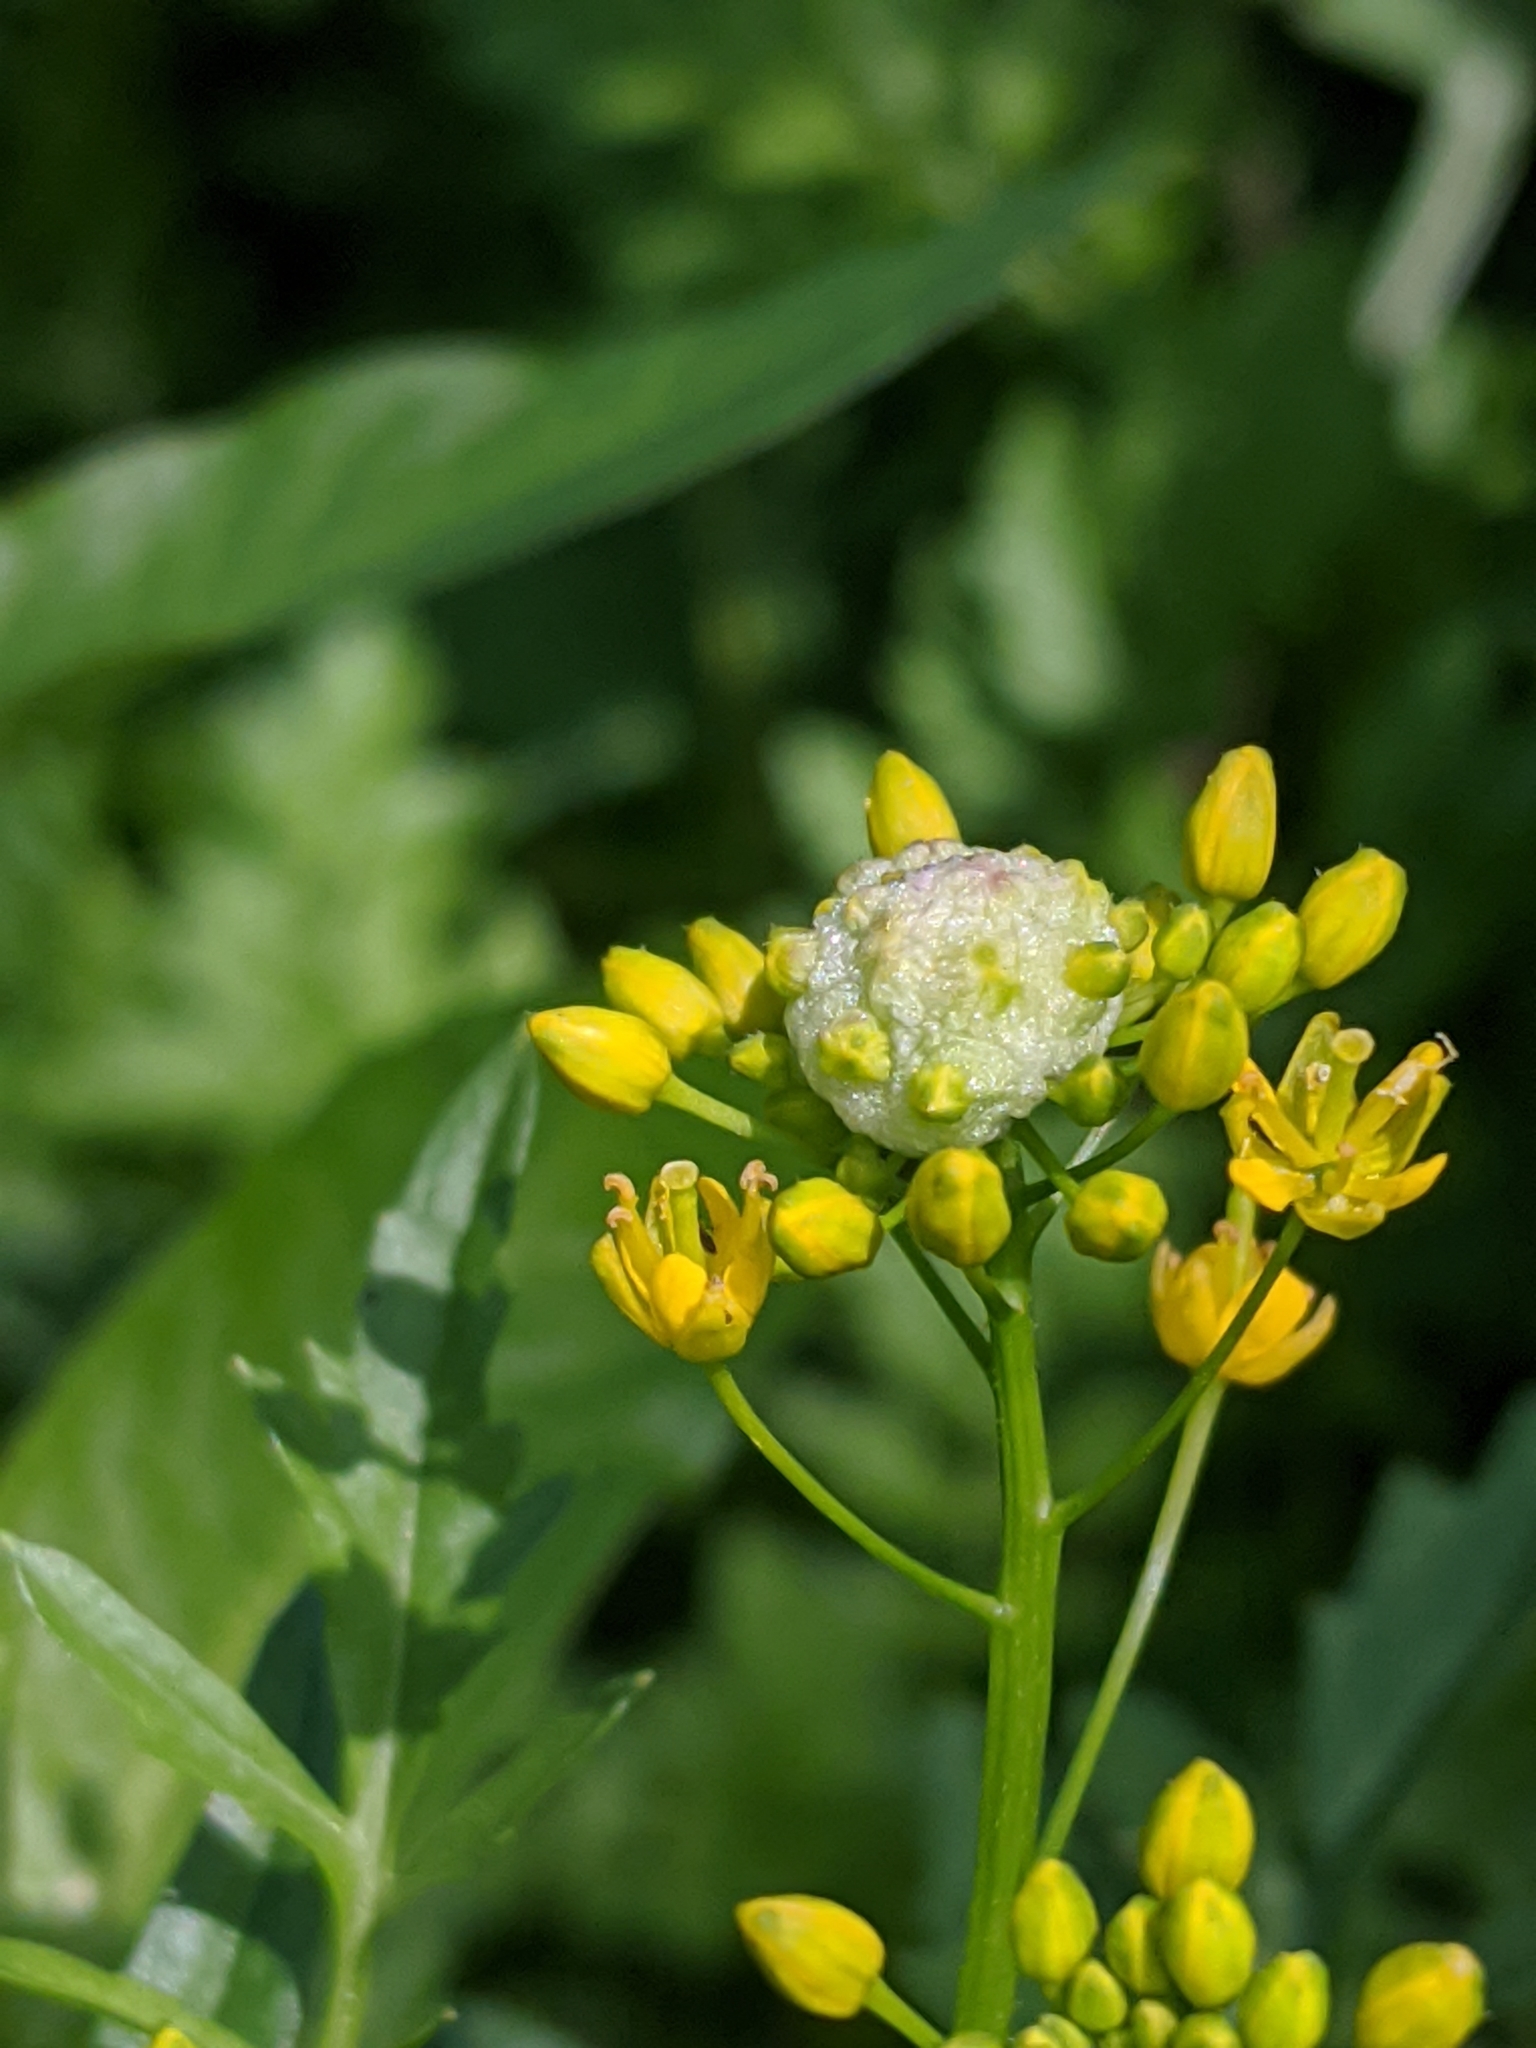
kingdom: Plantae
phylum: Tracheophyta
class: Magnoliopsida
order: Brassicales
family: Brassicaceae
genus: Rorippa
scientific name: Rorippa sylvestris
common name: Creeping yellowcress
